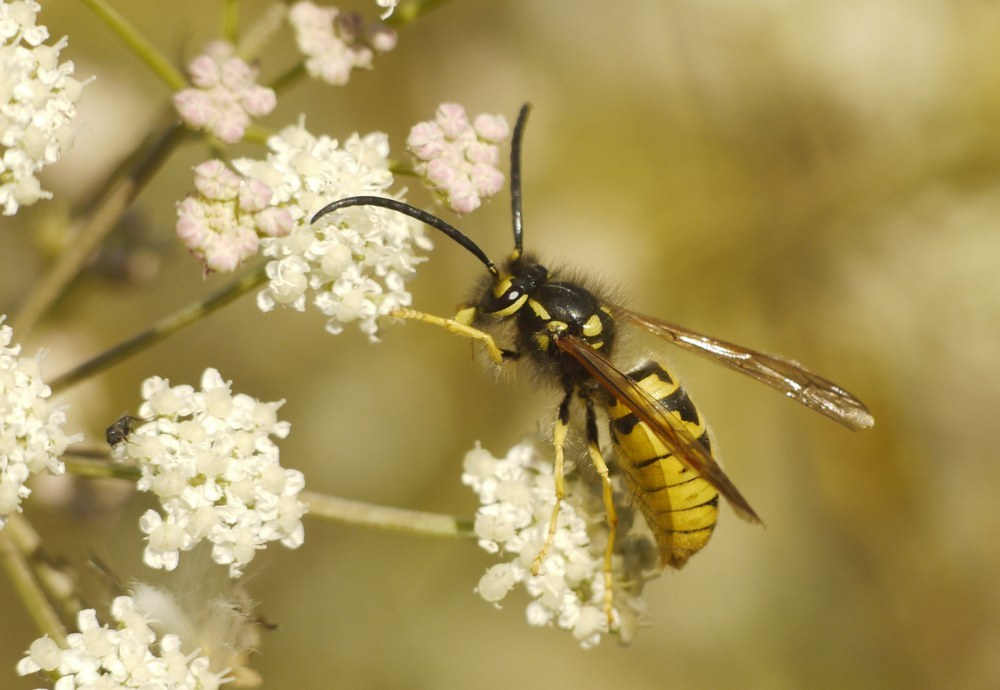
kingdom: Animalia
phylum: Arthropoda
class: Insecta
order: Hymenoptera
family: Vespidae
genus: Vespula
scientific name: Vespula germanica
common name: German wasp
